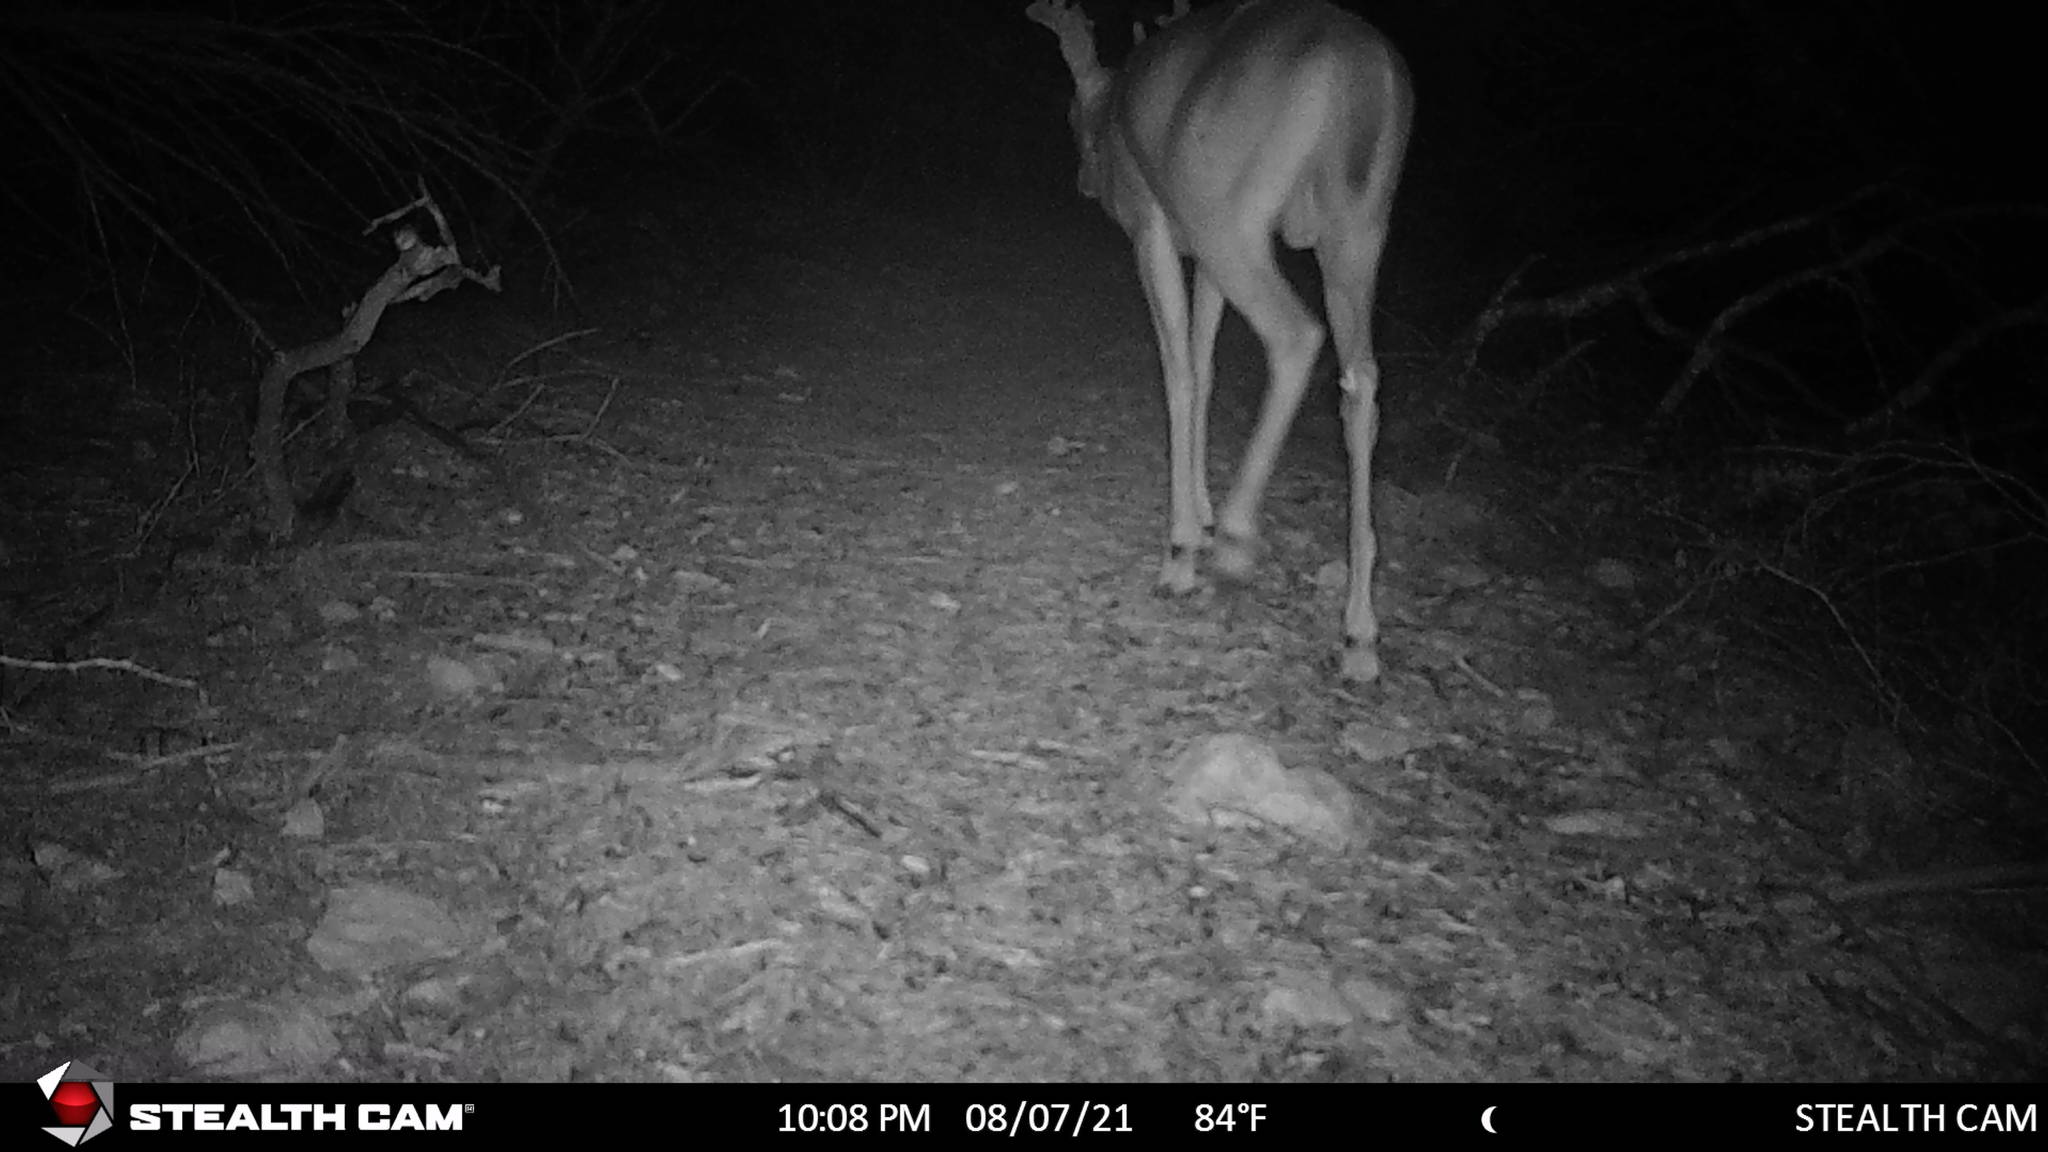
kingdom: Animalia
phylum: Chordata
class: Mammalia
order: Artiodactyla
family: Cervidae
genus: Odocoileus
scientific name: Odocoileus virginianus
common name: White-tailed deer
